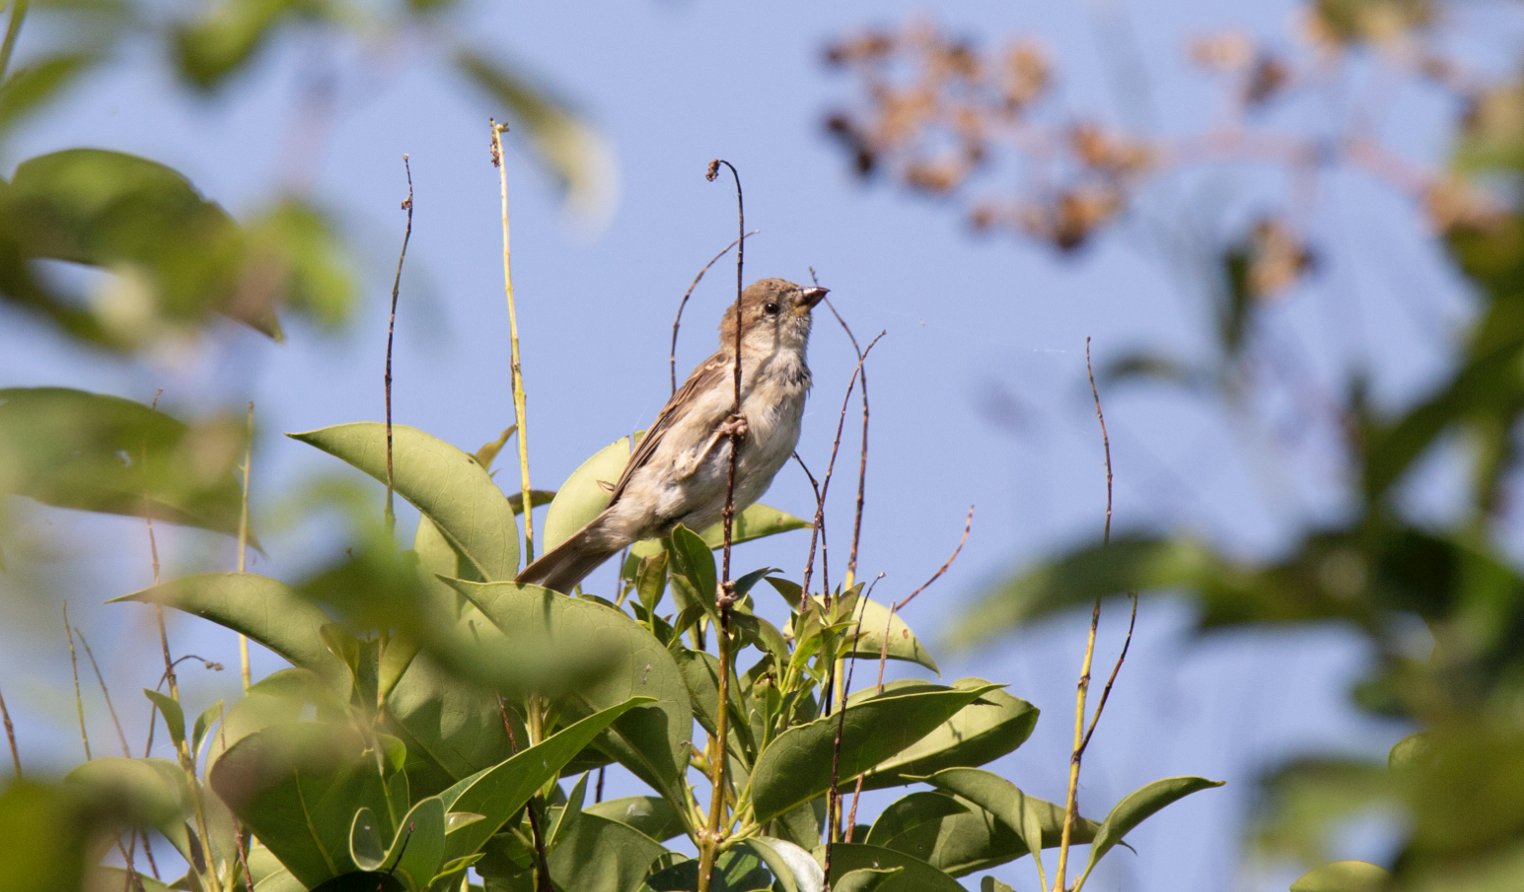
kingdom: Animalia
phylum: Chordata
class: Aves
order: Passeriformes
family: Passeridae
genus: Passer
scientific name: Passer italiae
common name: Italian sparrow
